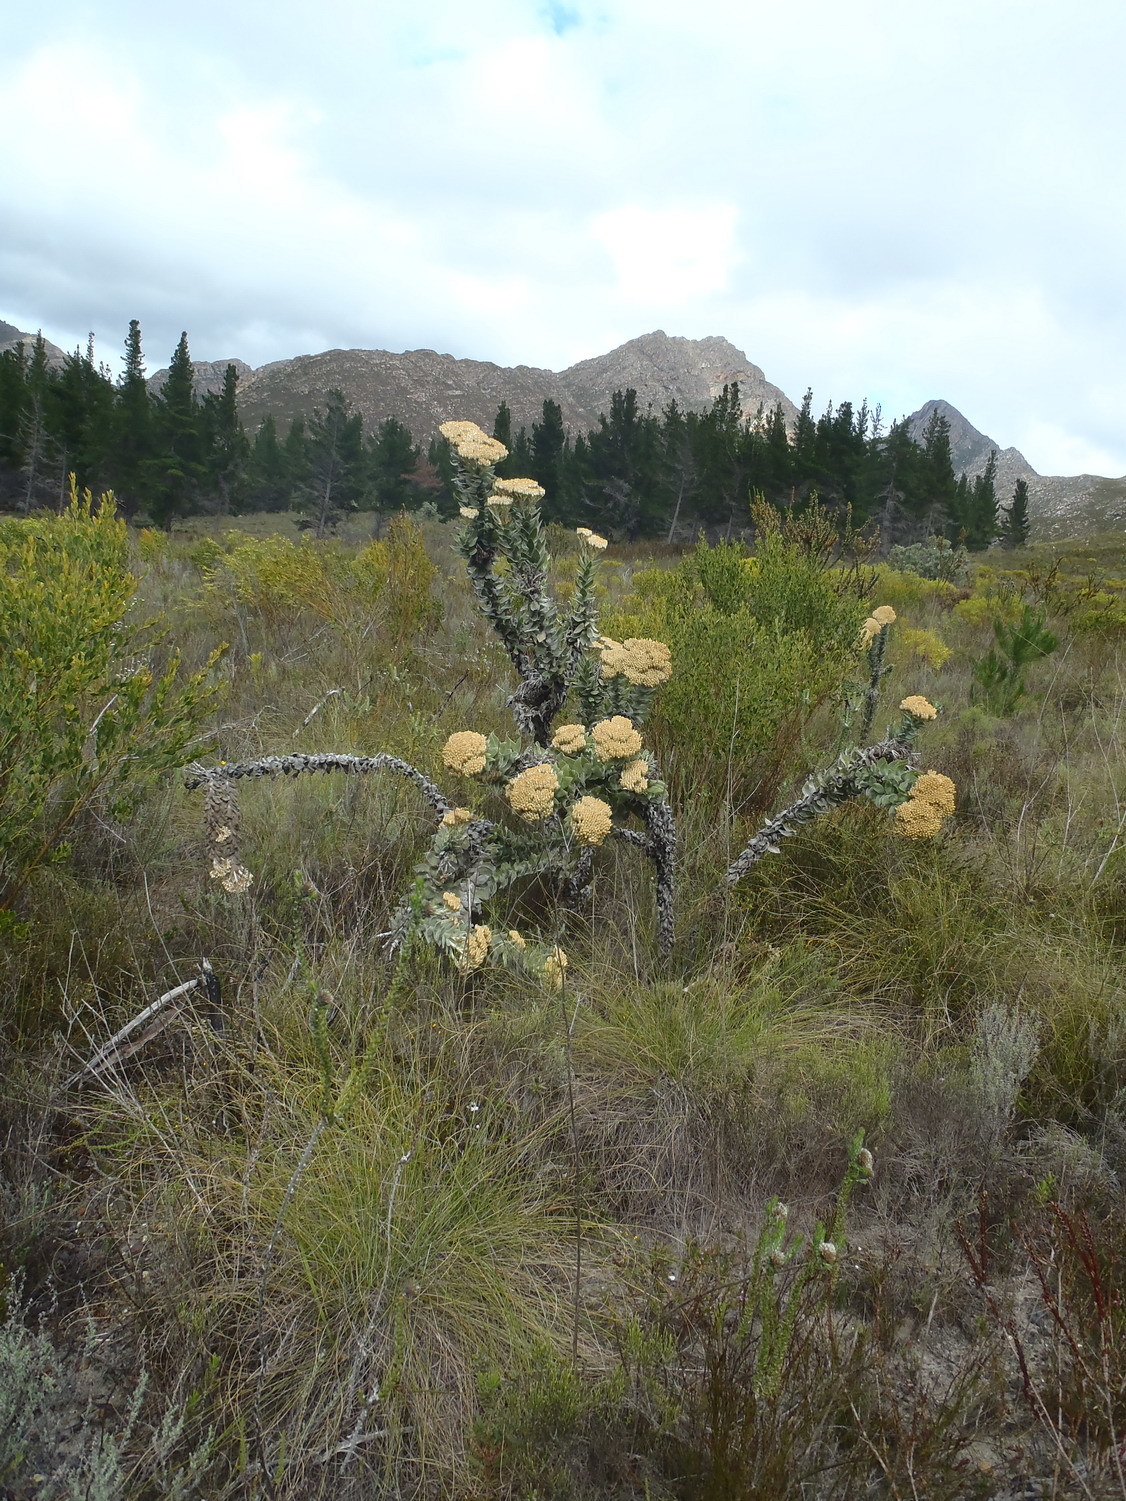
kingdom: Plantae
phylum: Tracheophyta
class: Magnoliopsida
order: Asterales
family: Asteraceae
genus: Syncarpha
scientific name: Syncarpha milleflora
